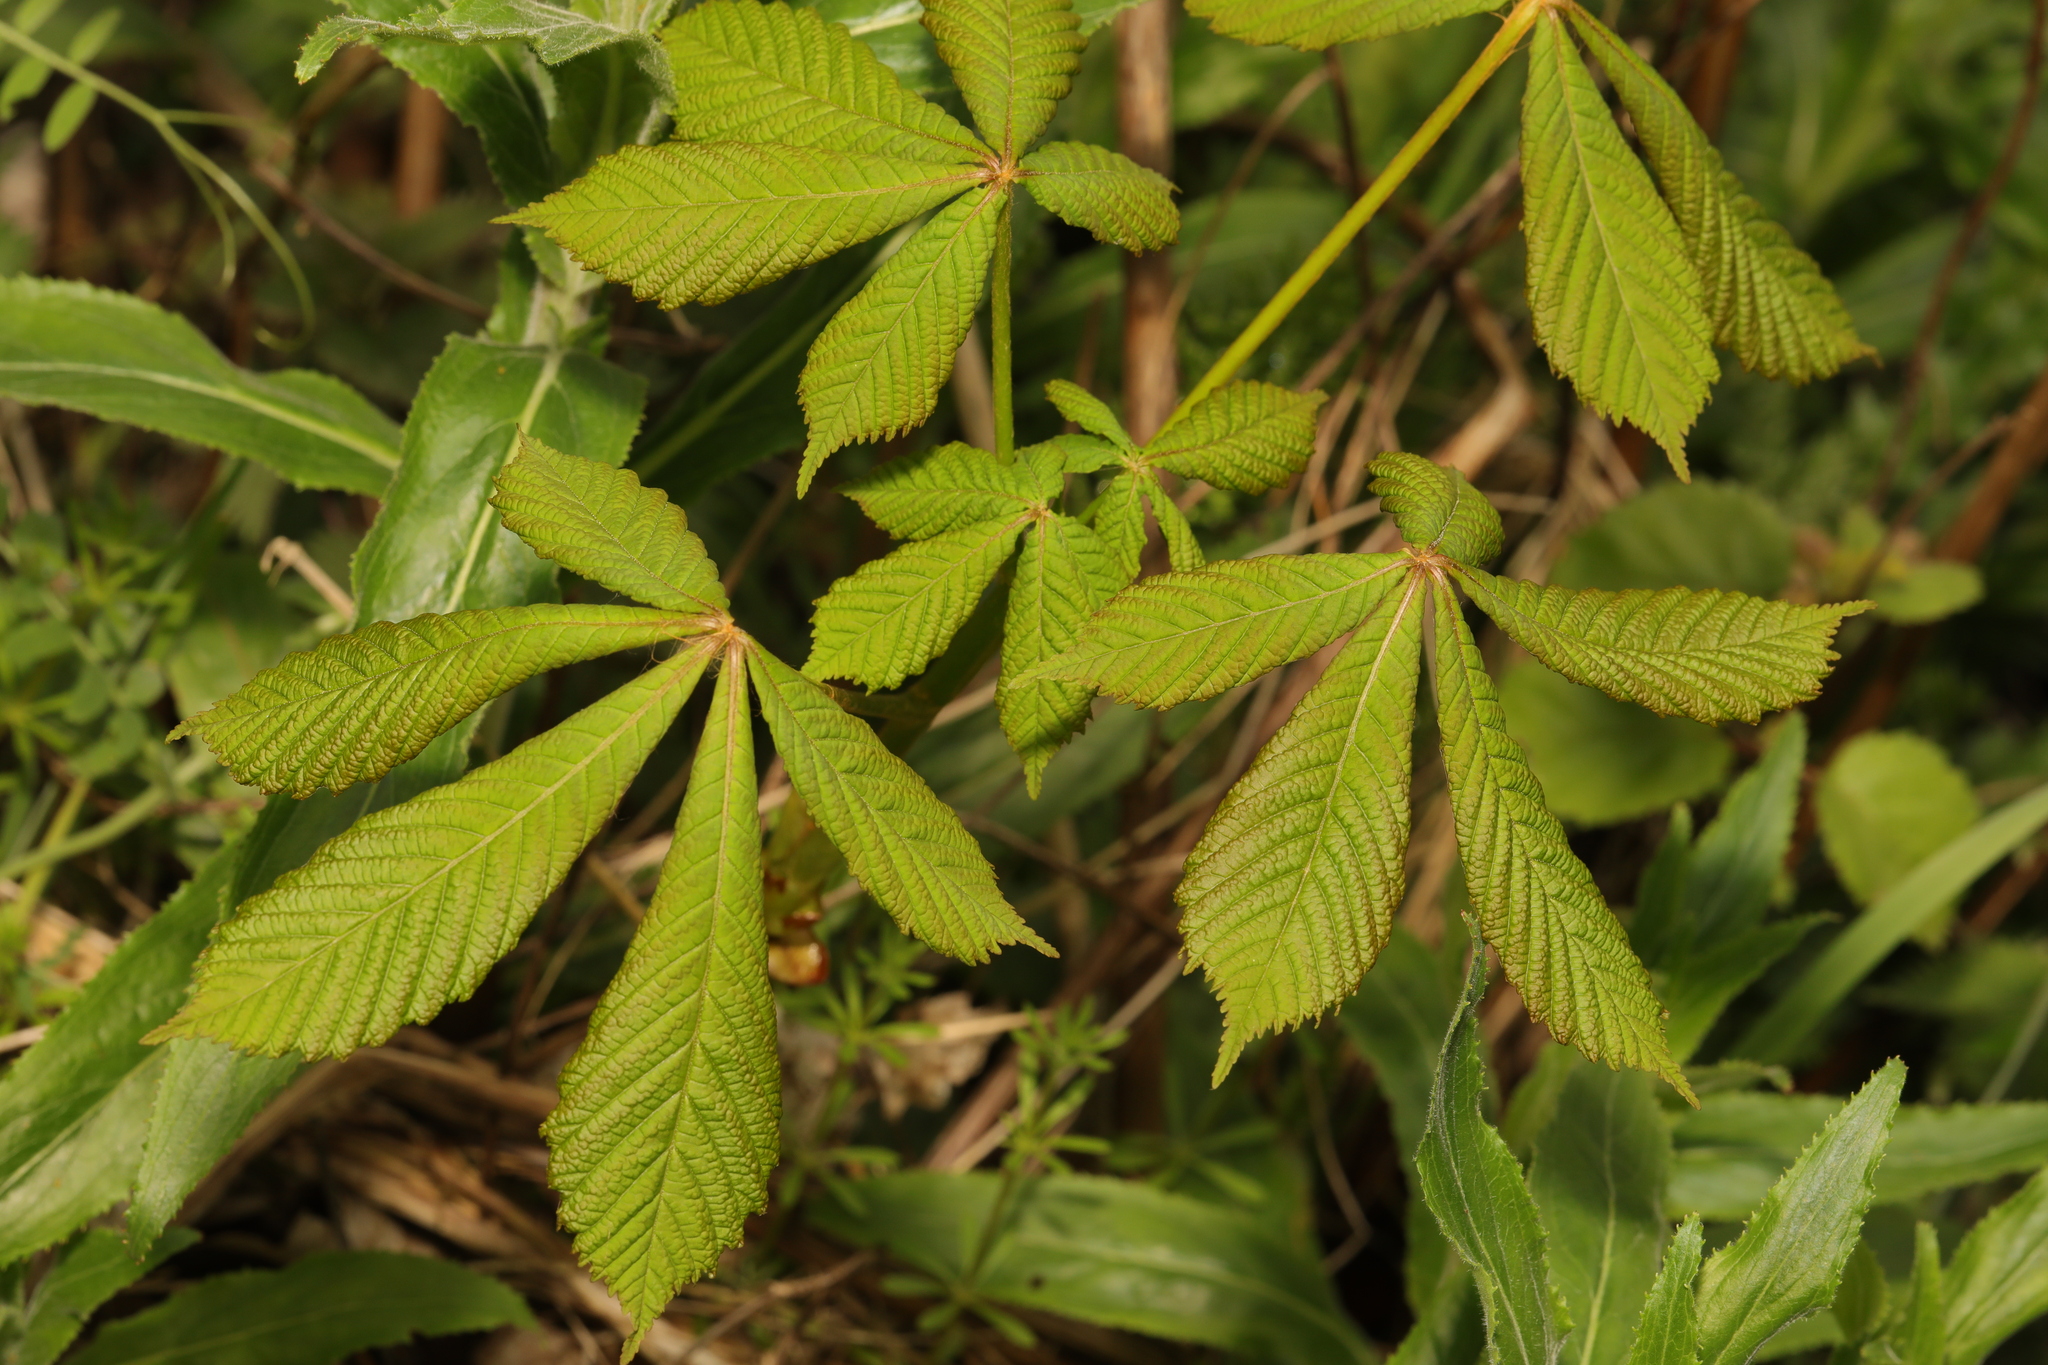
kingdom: Plantae
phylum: Tracheophyta
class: Magnoliopsida
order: Sapindales
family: Sapindaceae
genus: Aesculus
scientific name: Aesculus hippocastanum
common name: Horse-chestnut
